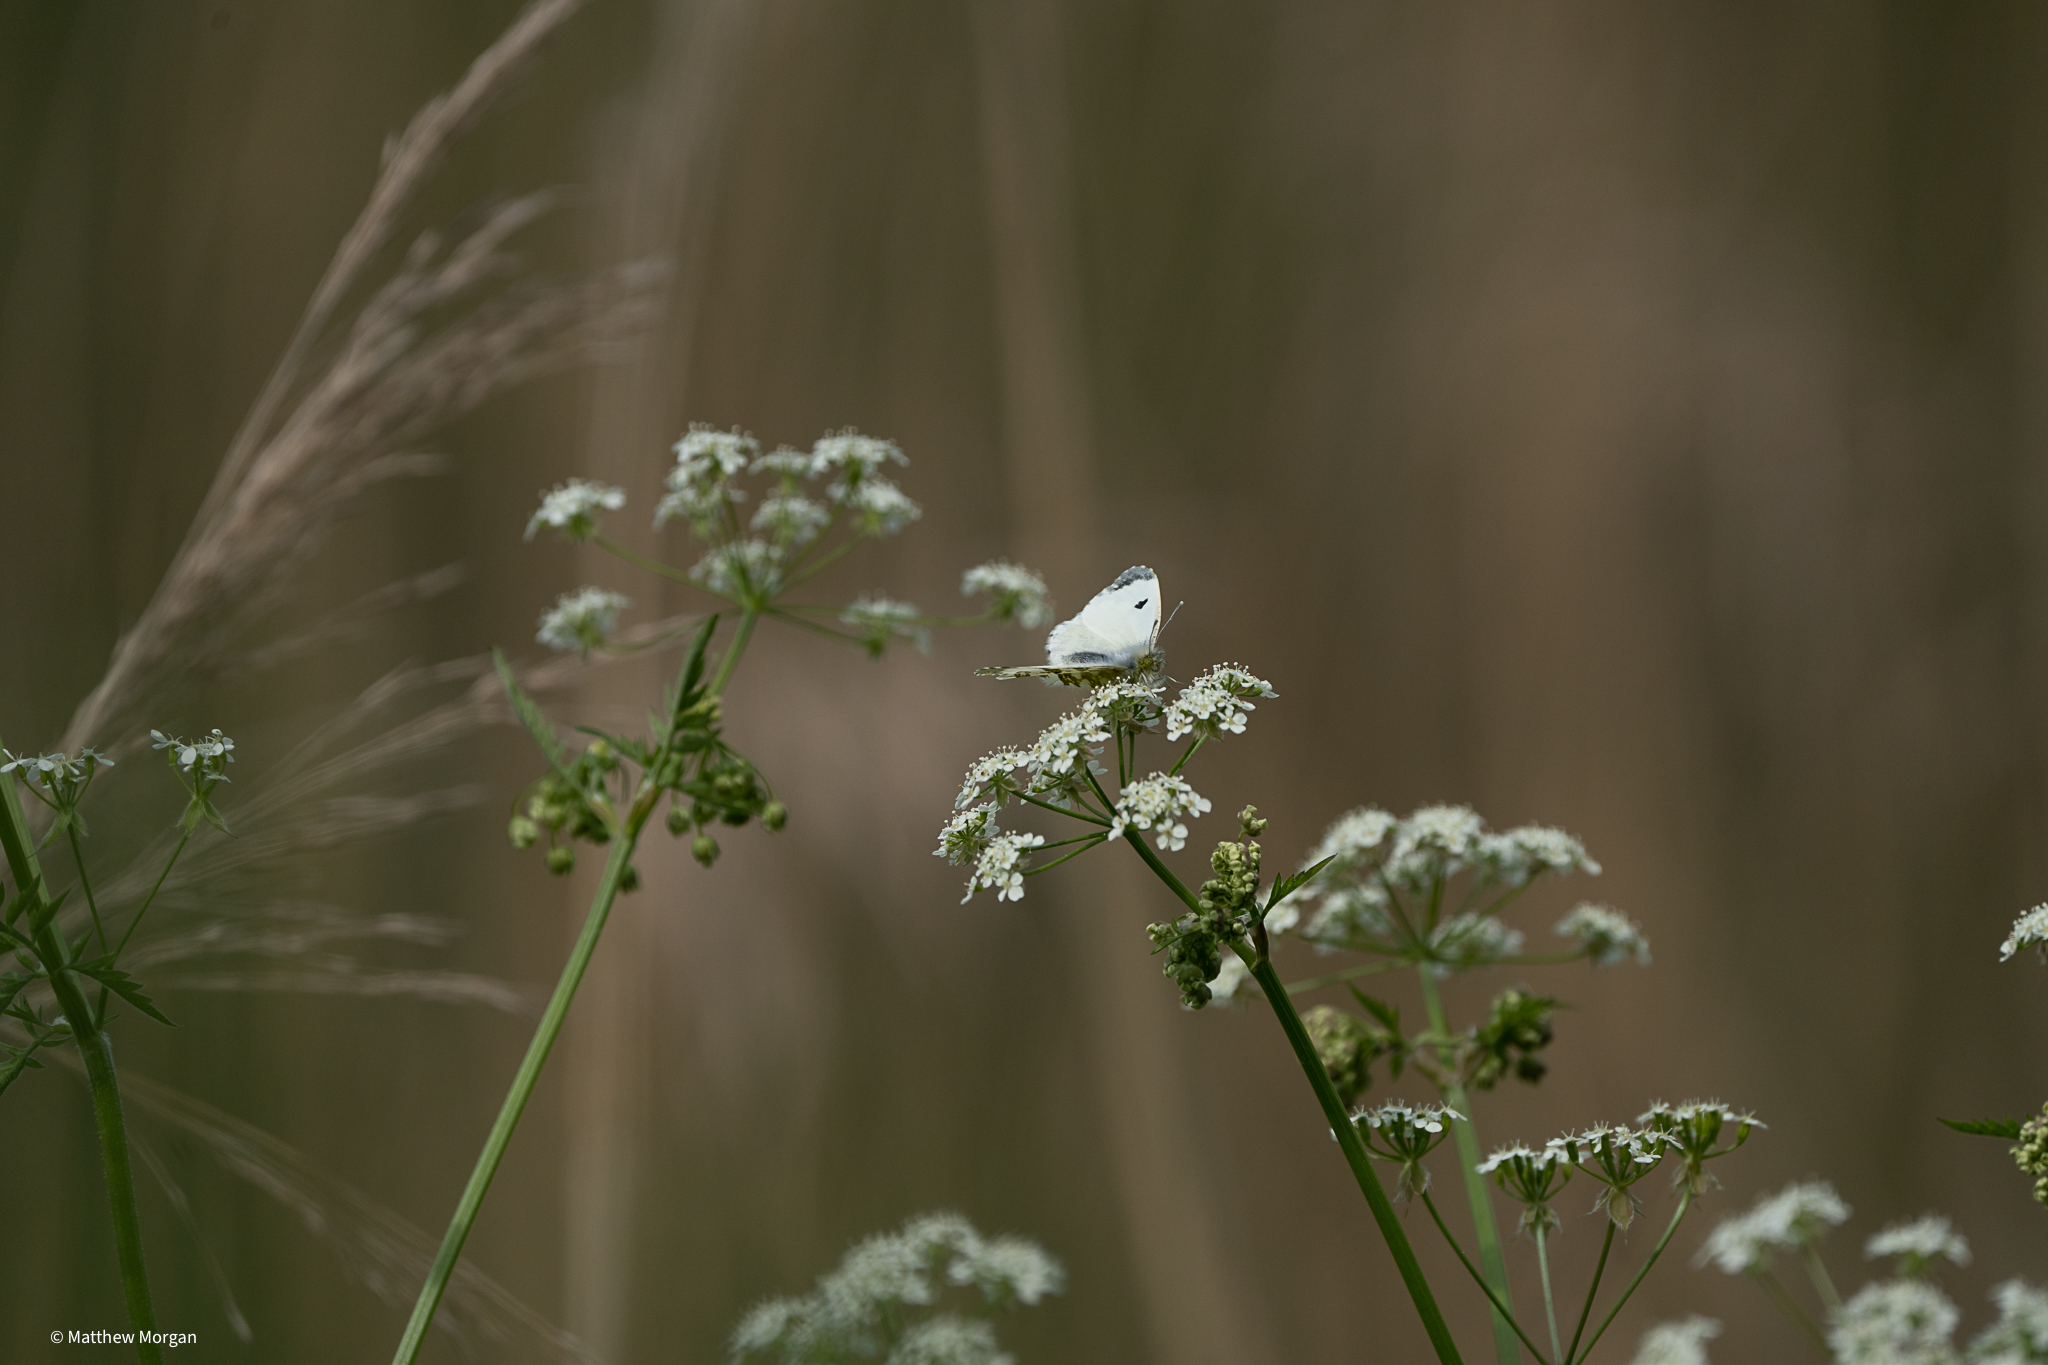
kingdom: Animalia
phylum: Arthropoda
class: Insecta
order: Lepidoptera
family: Pieridae
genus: Anthocharis
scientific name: Anthocharis cardamines
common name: Orange-tip
